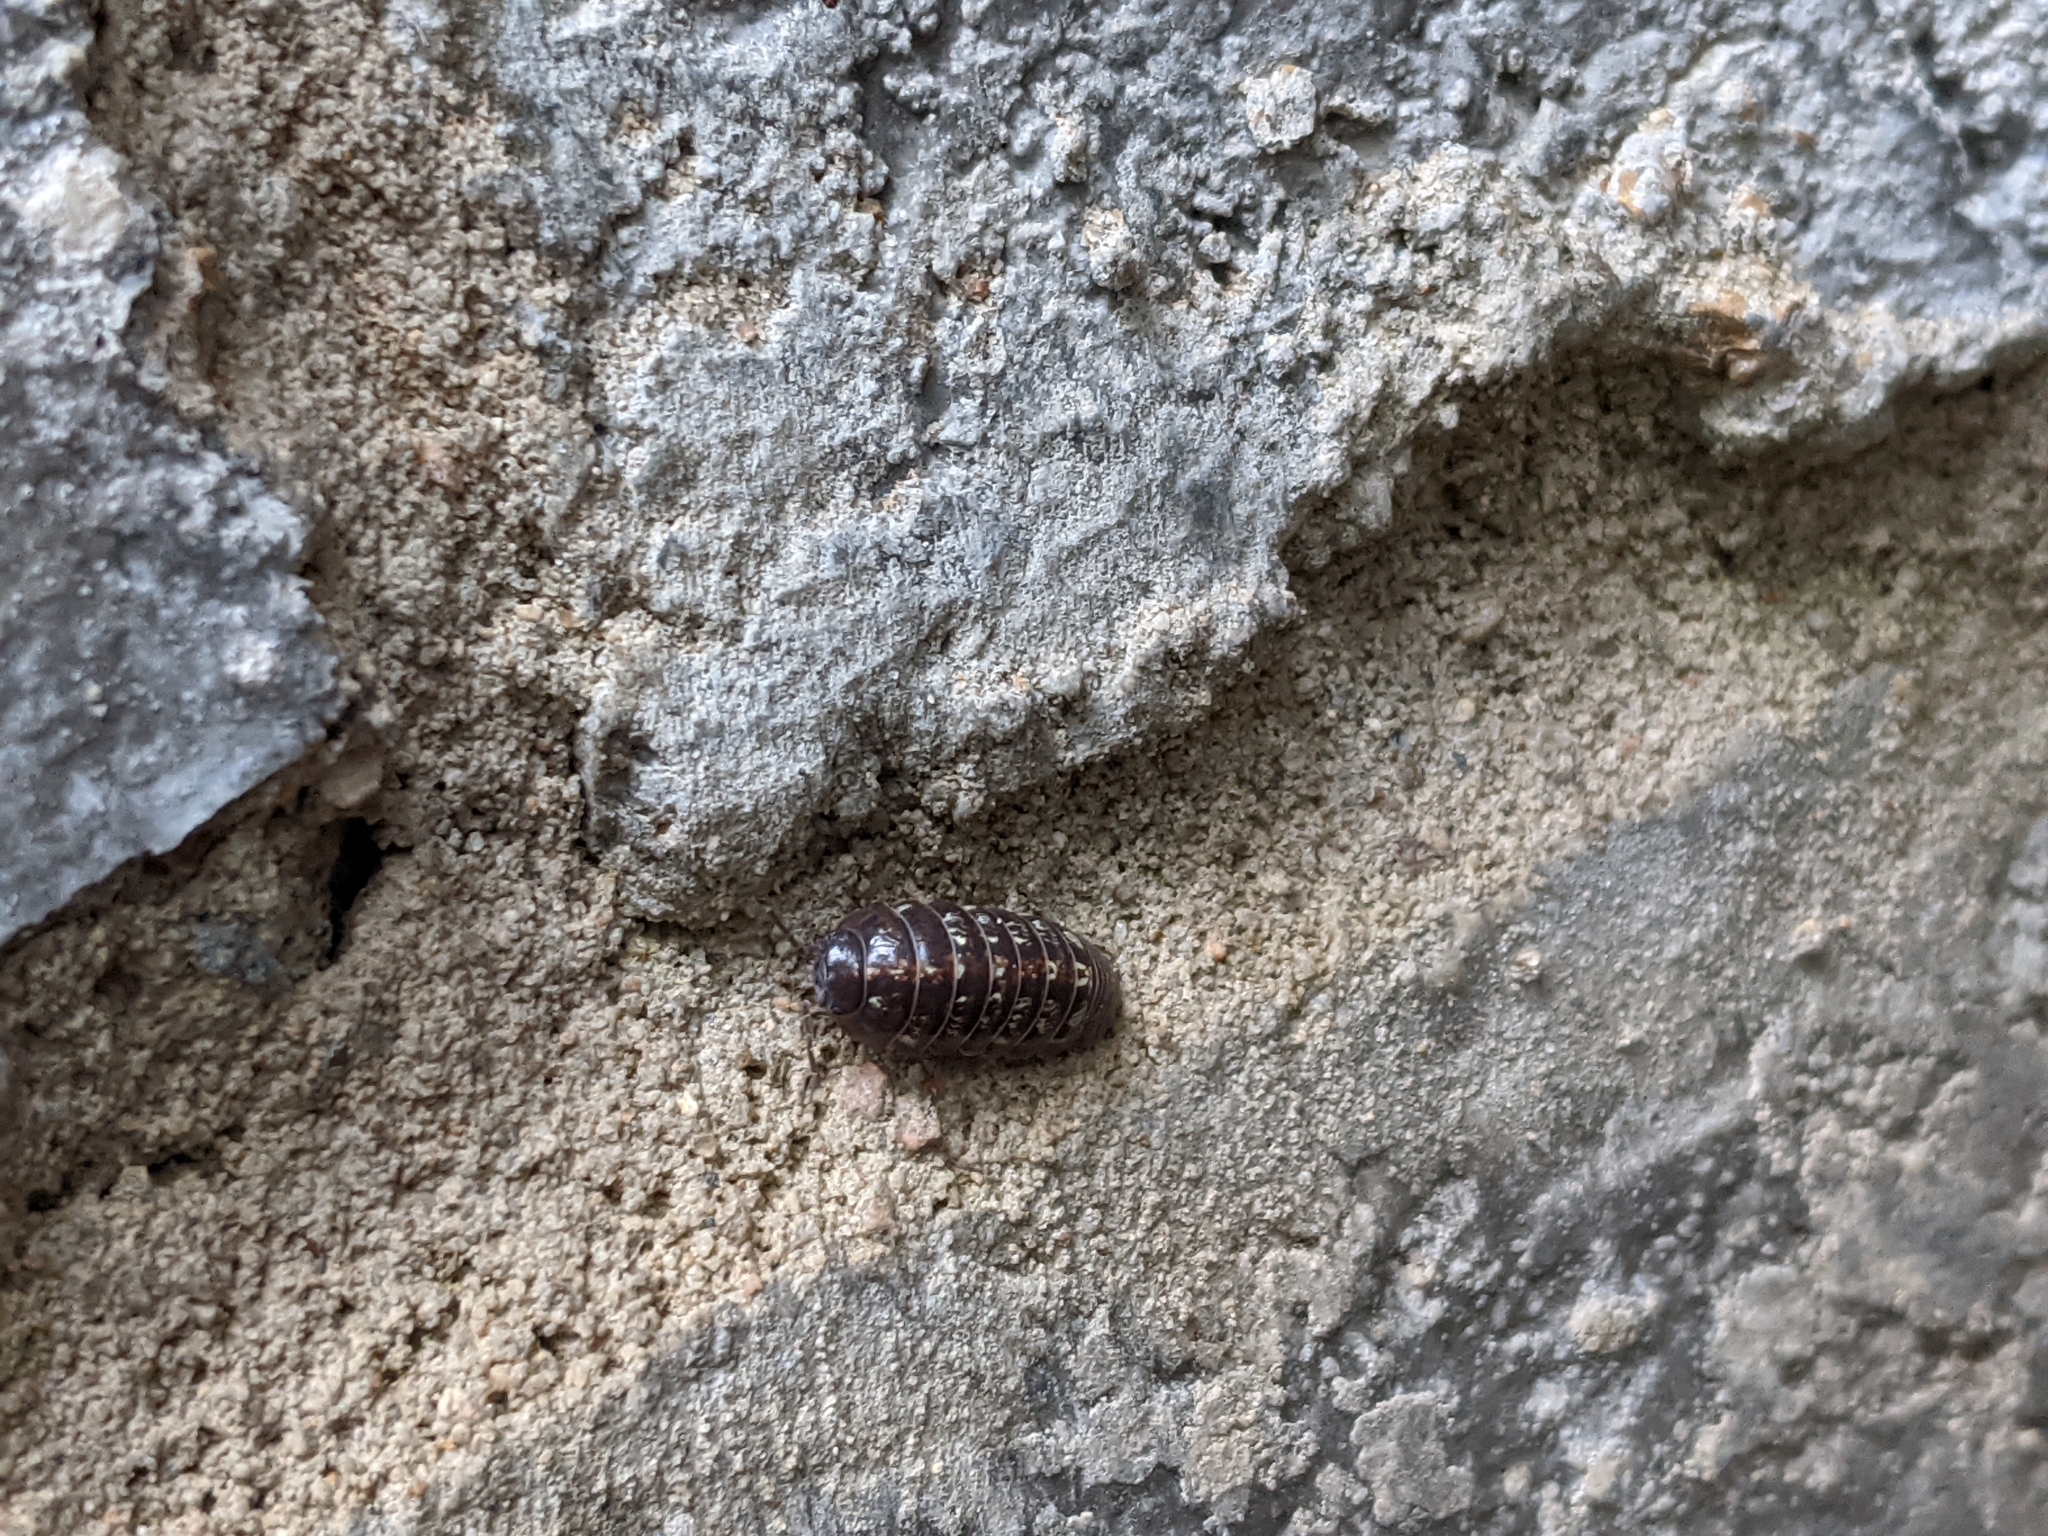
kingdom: Animalia
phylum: Arthropoda
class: Malacostraca
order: Isopoda
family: Armadillidiidae
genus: Armadillidium
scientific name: Armadillidium vulgare
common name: Common pill woodlouse
